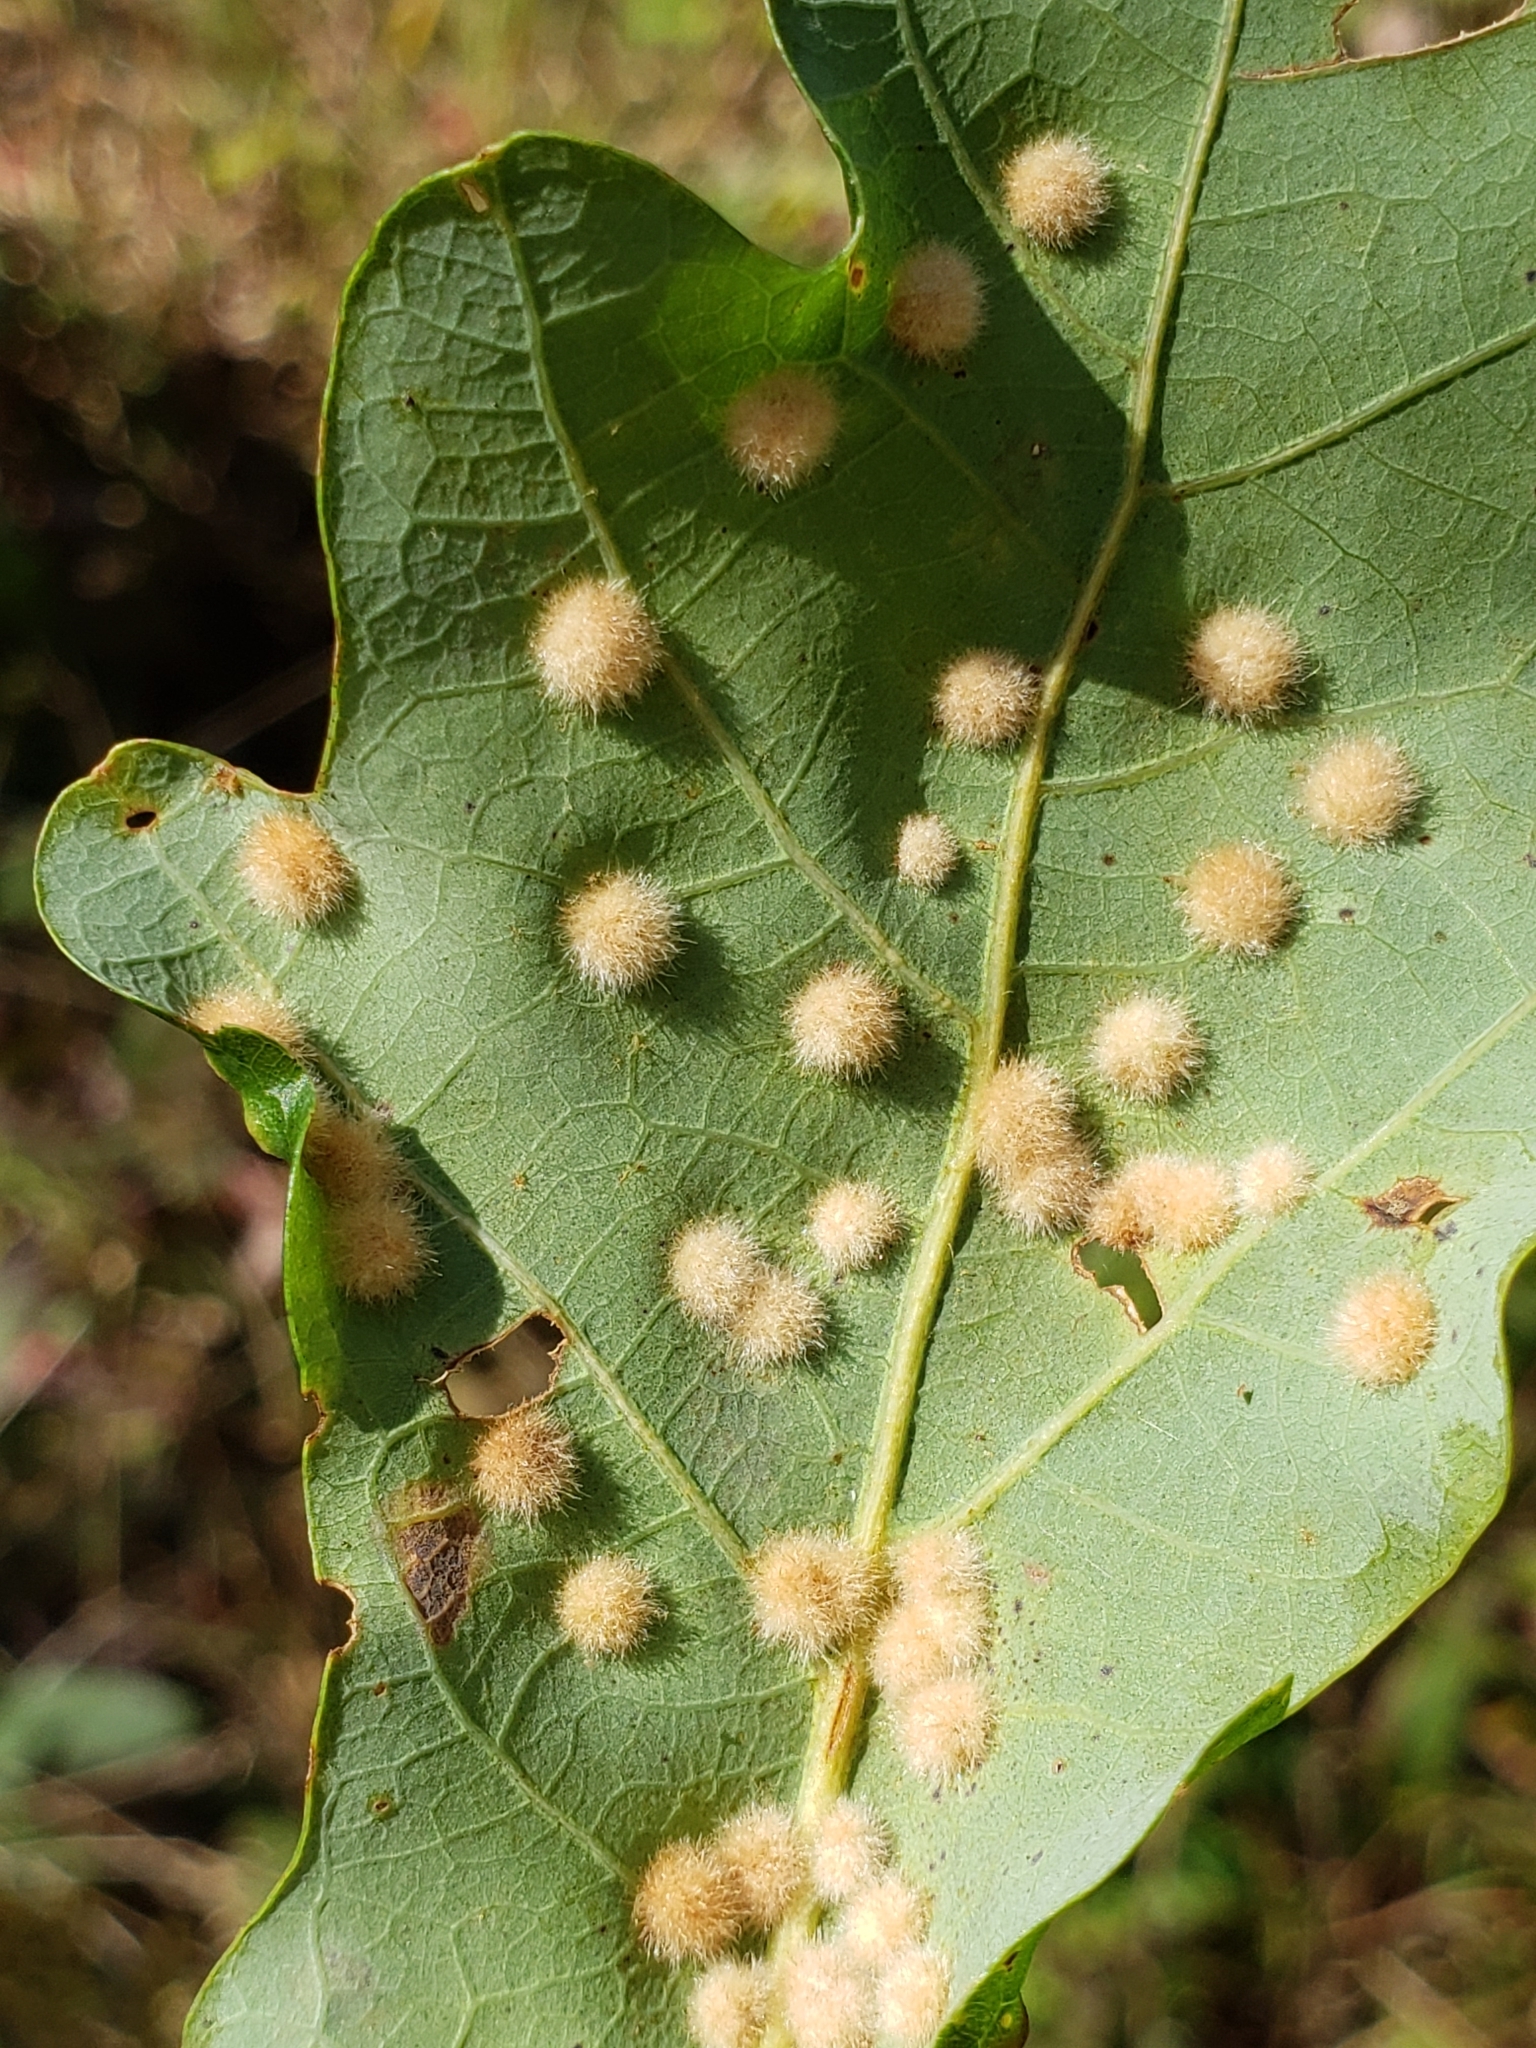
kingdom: Animalia
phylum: Arthropoda
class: Insecta
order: Hymenoptera
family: Cynipidae
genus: Neuroterus
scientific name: Neuroterus quercusverrucarum
